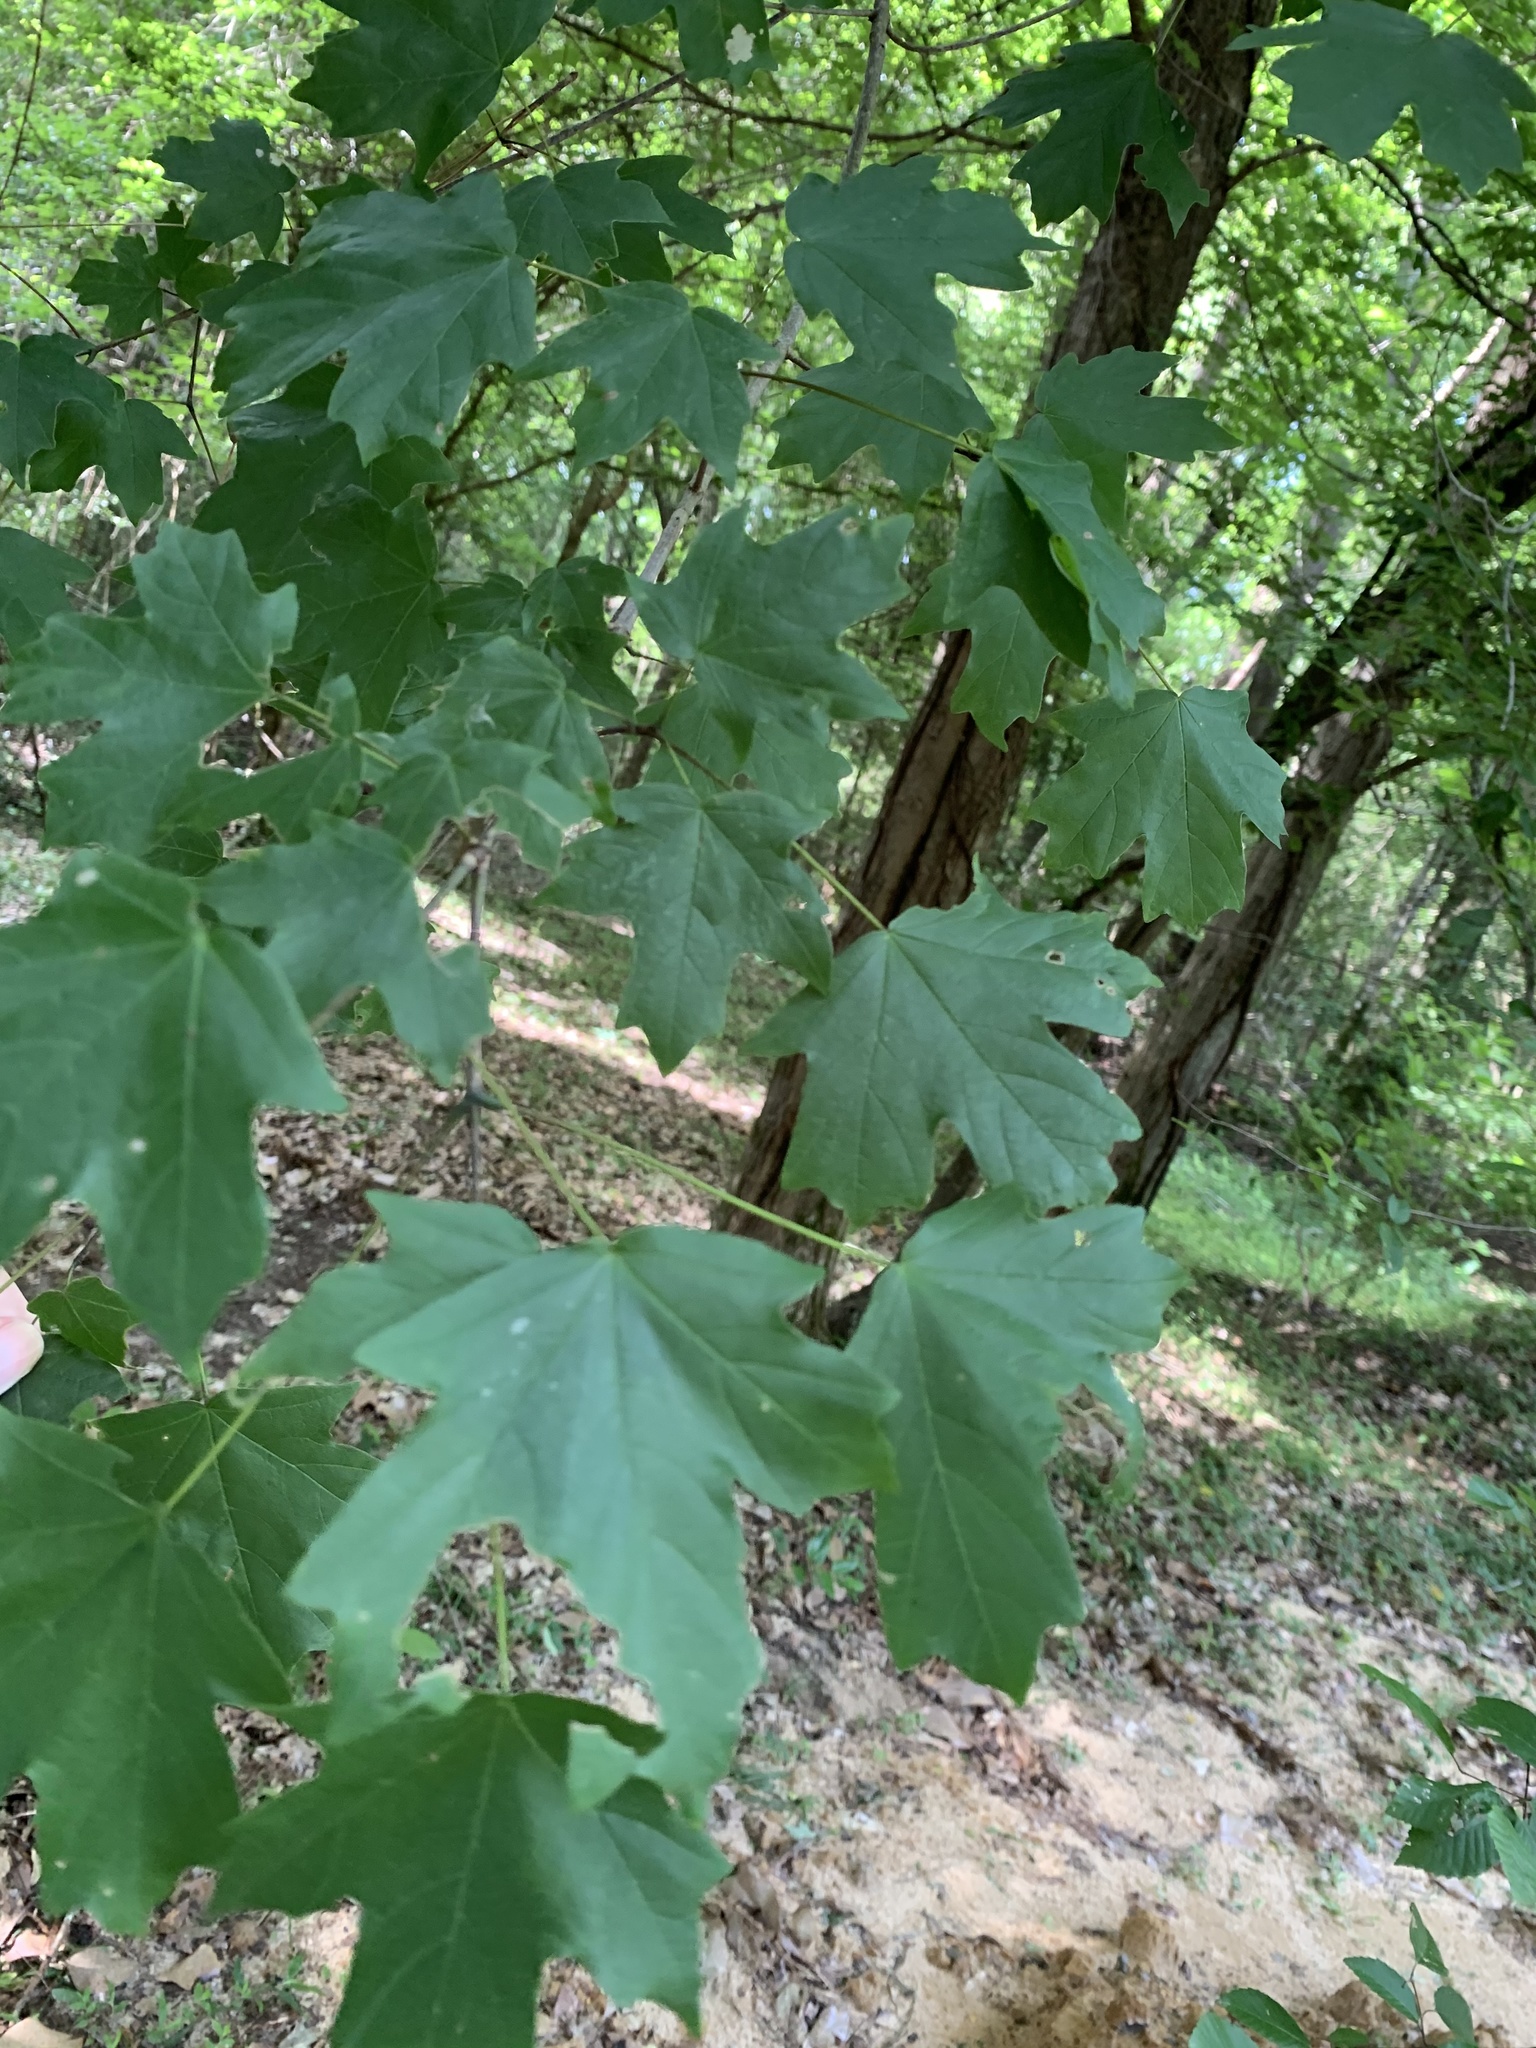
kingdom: Plantae
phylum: Tracheophyta
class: Magnoliopsida
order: Sapindales
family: Sapindaceae
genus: Acer
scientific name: Acer floridanum
